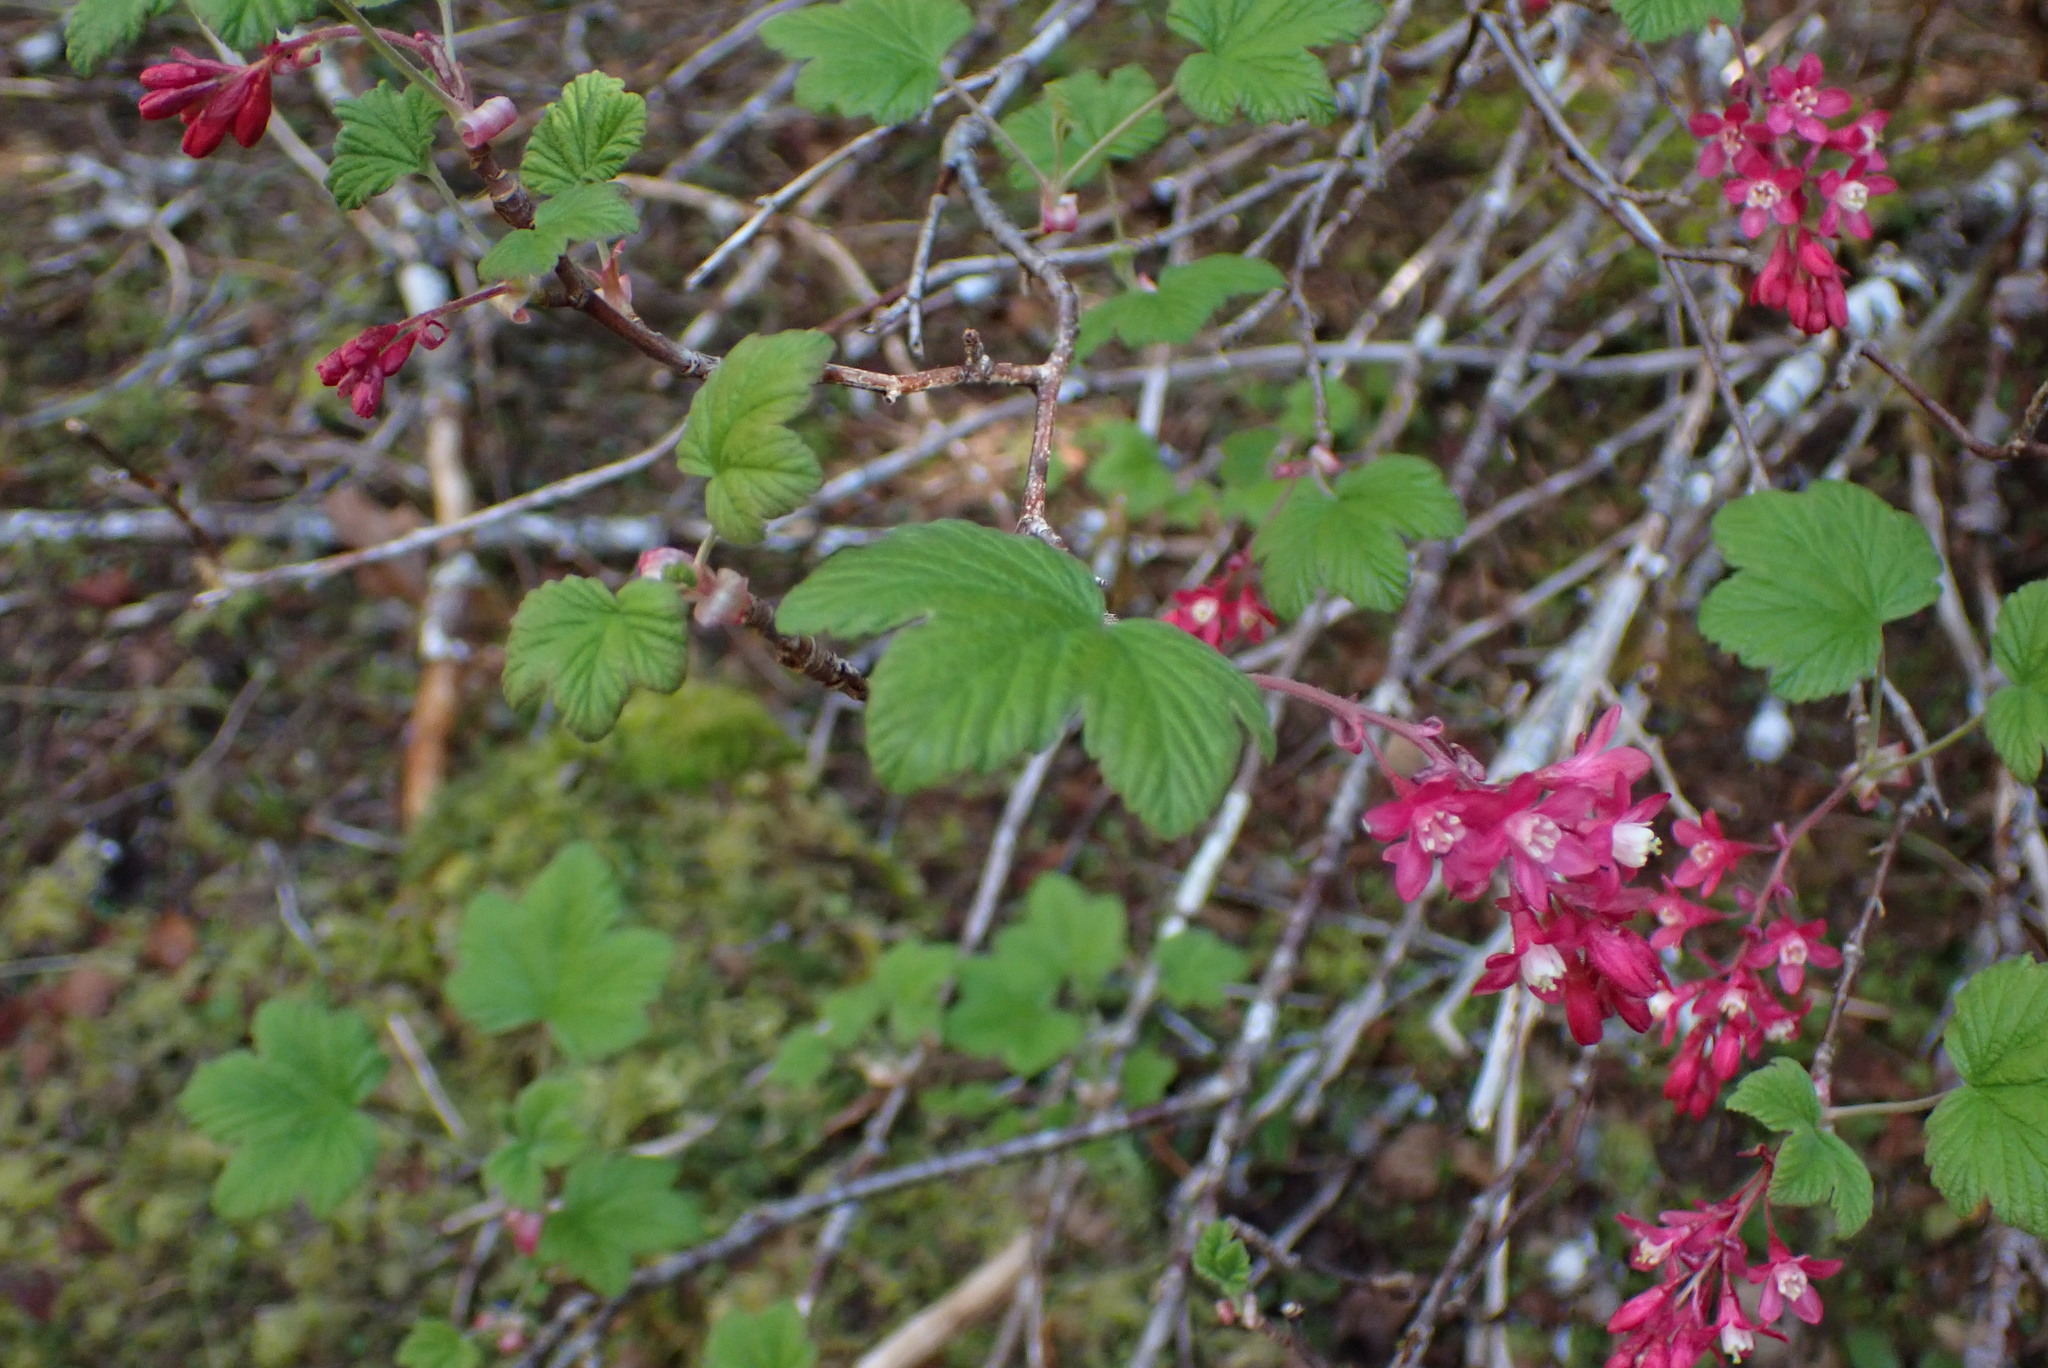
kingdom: Plantae
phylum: Tracheophyta
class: Magnoliopsida
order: Saxifragales
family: Grossulariaceae
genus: Ribes
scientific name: Ribes sanguineum
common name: Flowering currant
